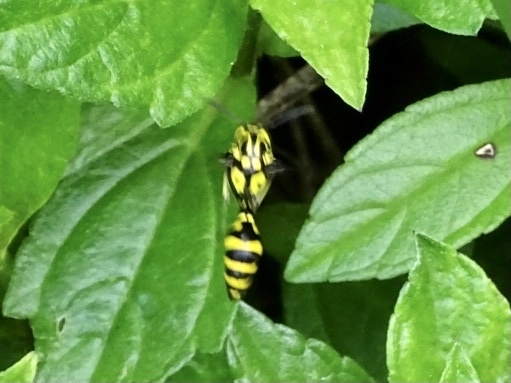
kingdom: Animalia
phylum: Arthropoda
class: Insecta
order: Hymenoptera
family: Eumenidae
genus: Pseumenes
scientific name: Pseumenes depressus
